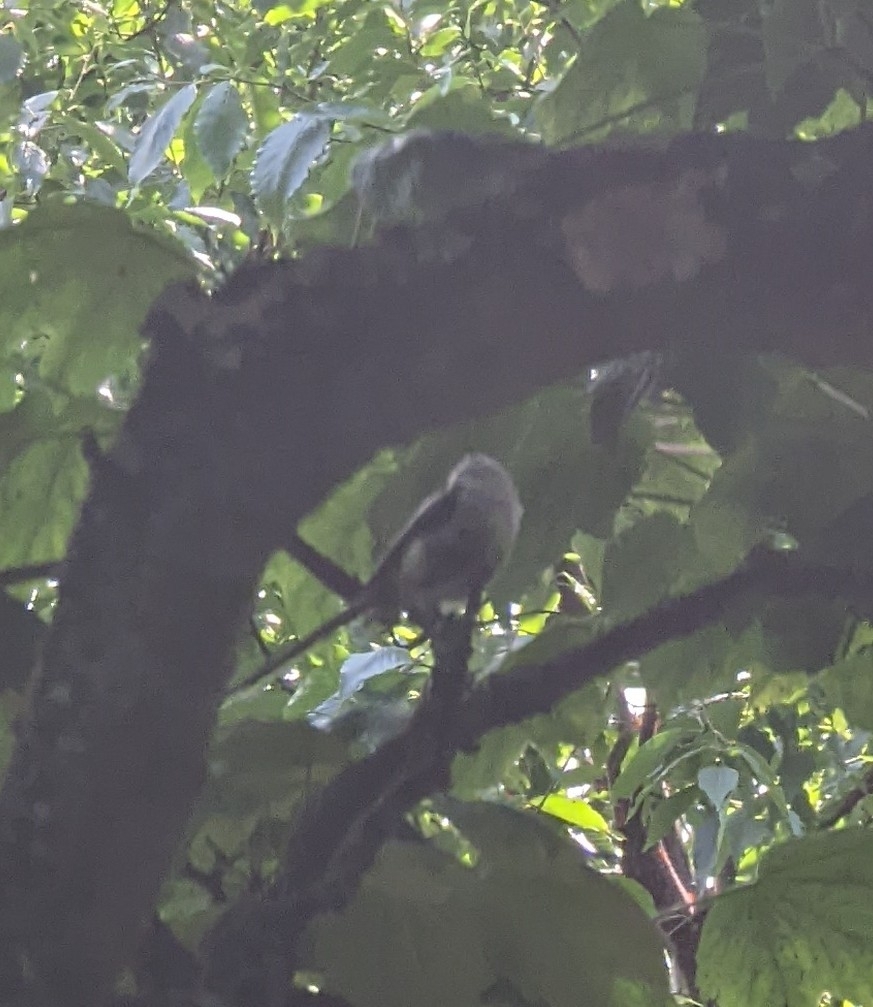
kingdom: Animalia
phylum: Chordata
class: Aves
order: Passeriformes
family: Aegithalidae
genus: Aegithalos
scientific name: Aegithalos caudatus
